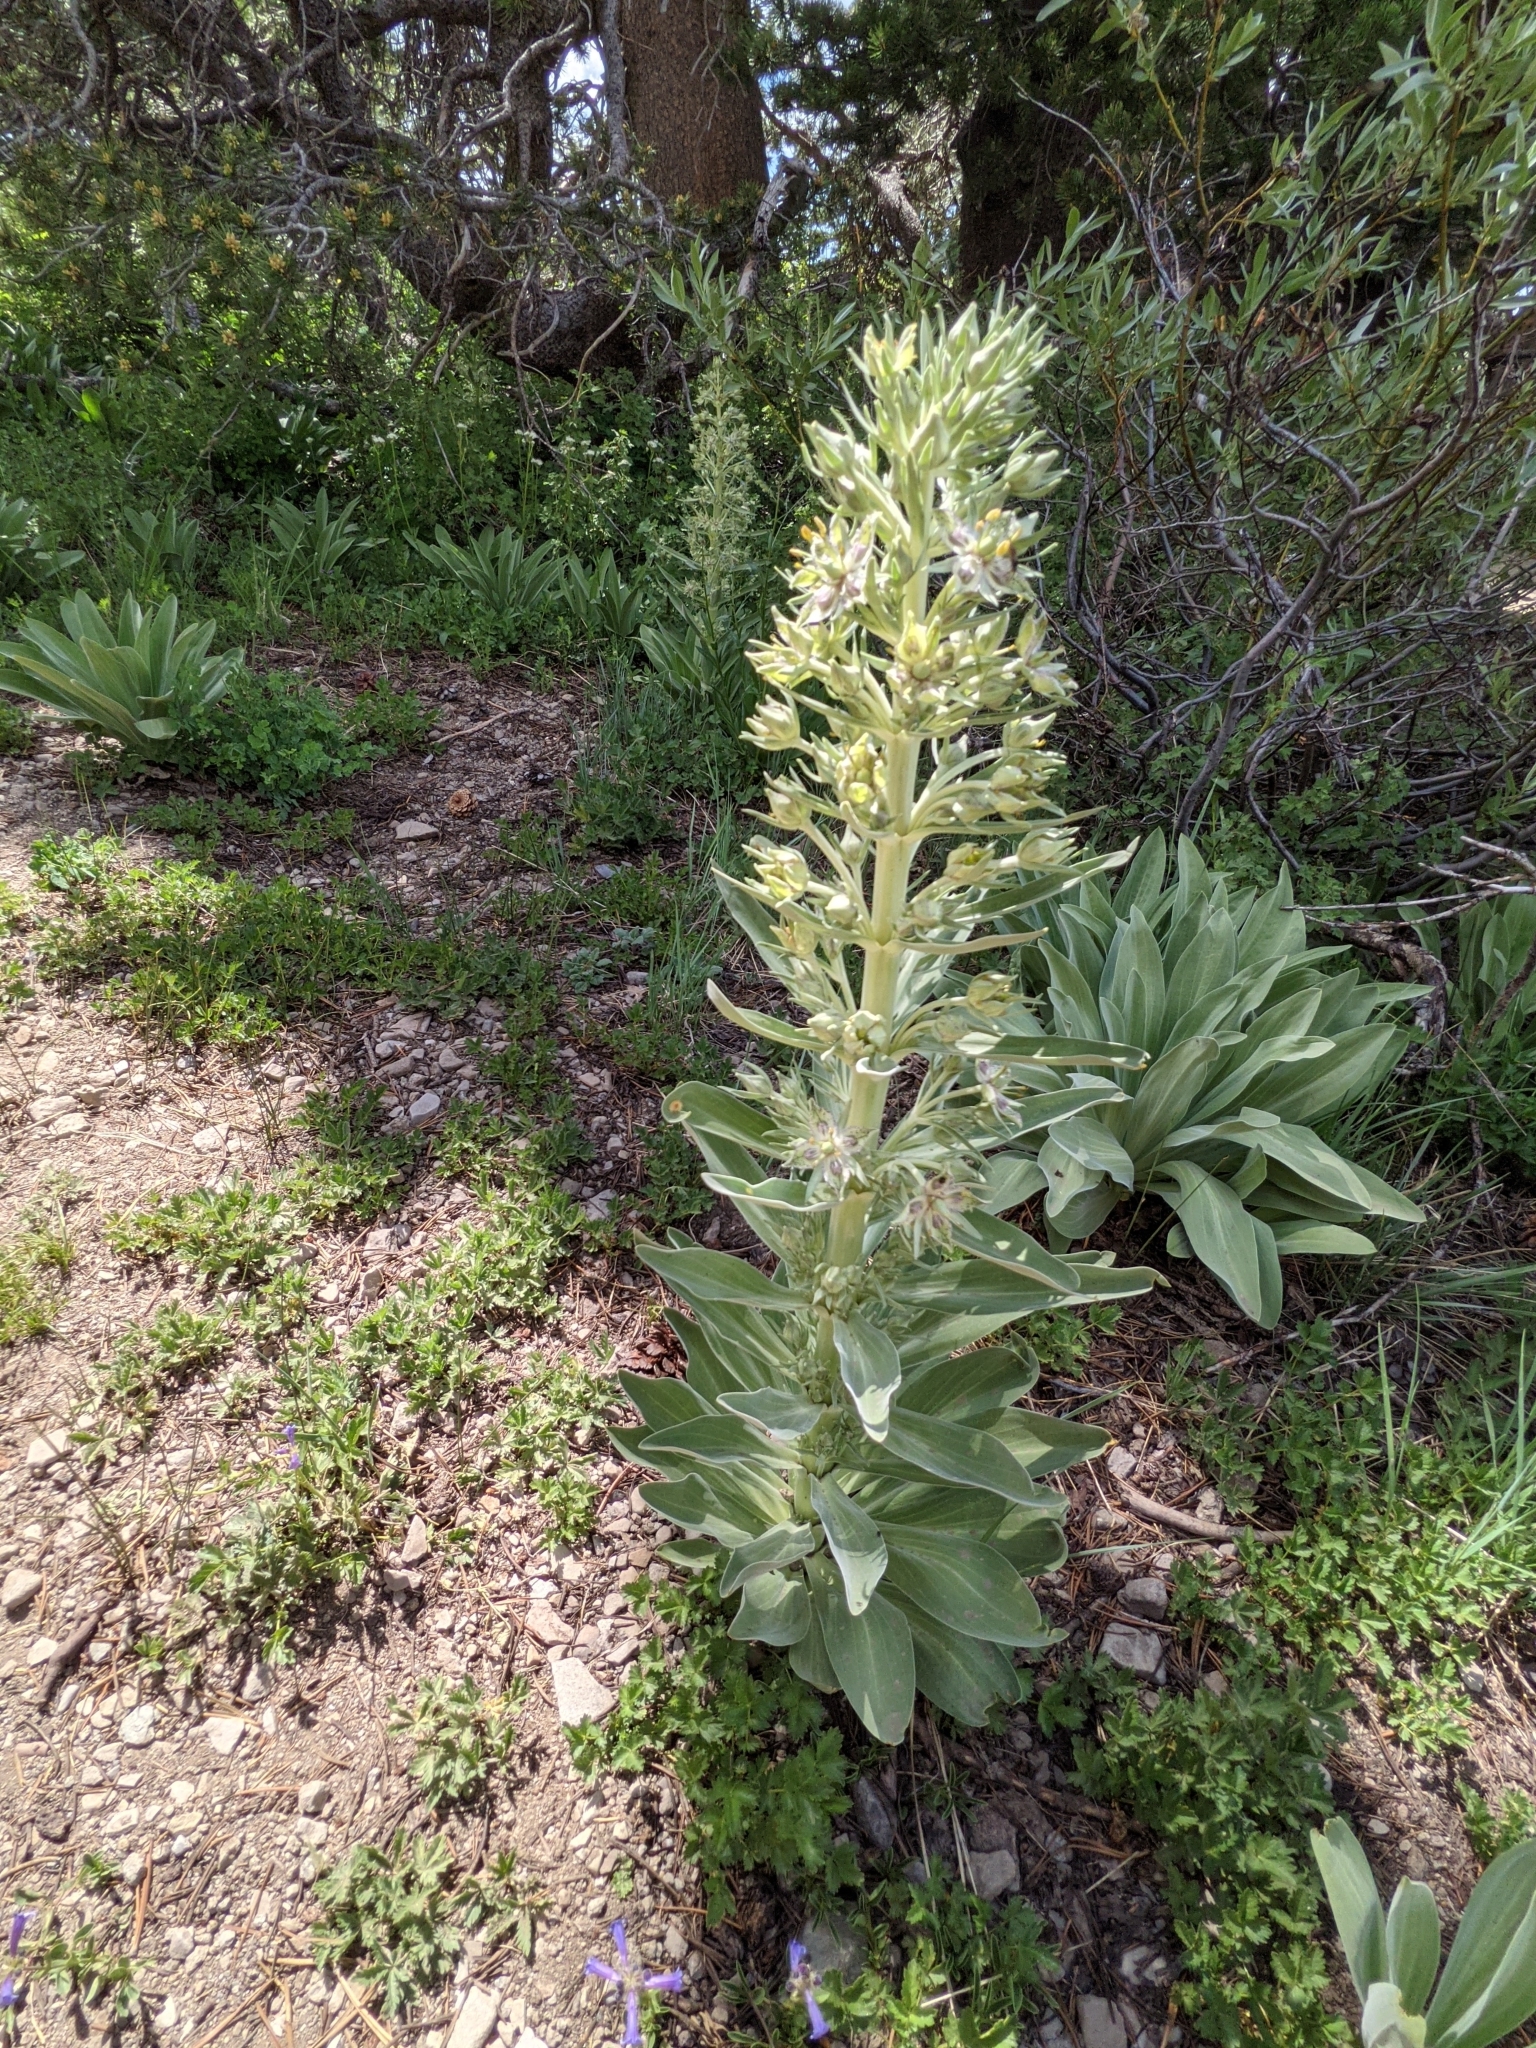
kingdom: Plantae
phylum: Tracheophyta
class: Magnoliopsida
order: Gentianales
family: Gentianaceae
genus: Frasera
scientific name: Frasera speciosa
